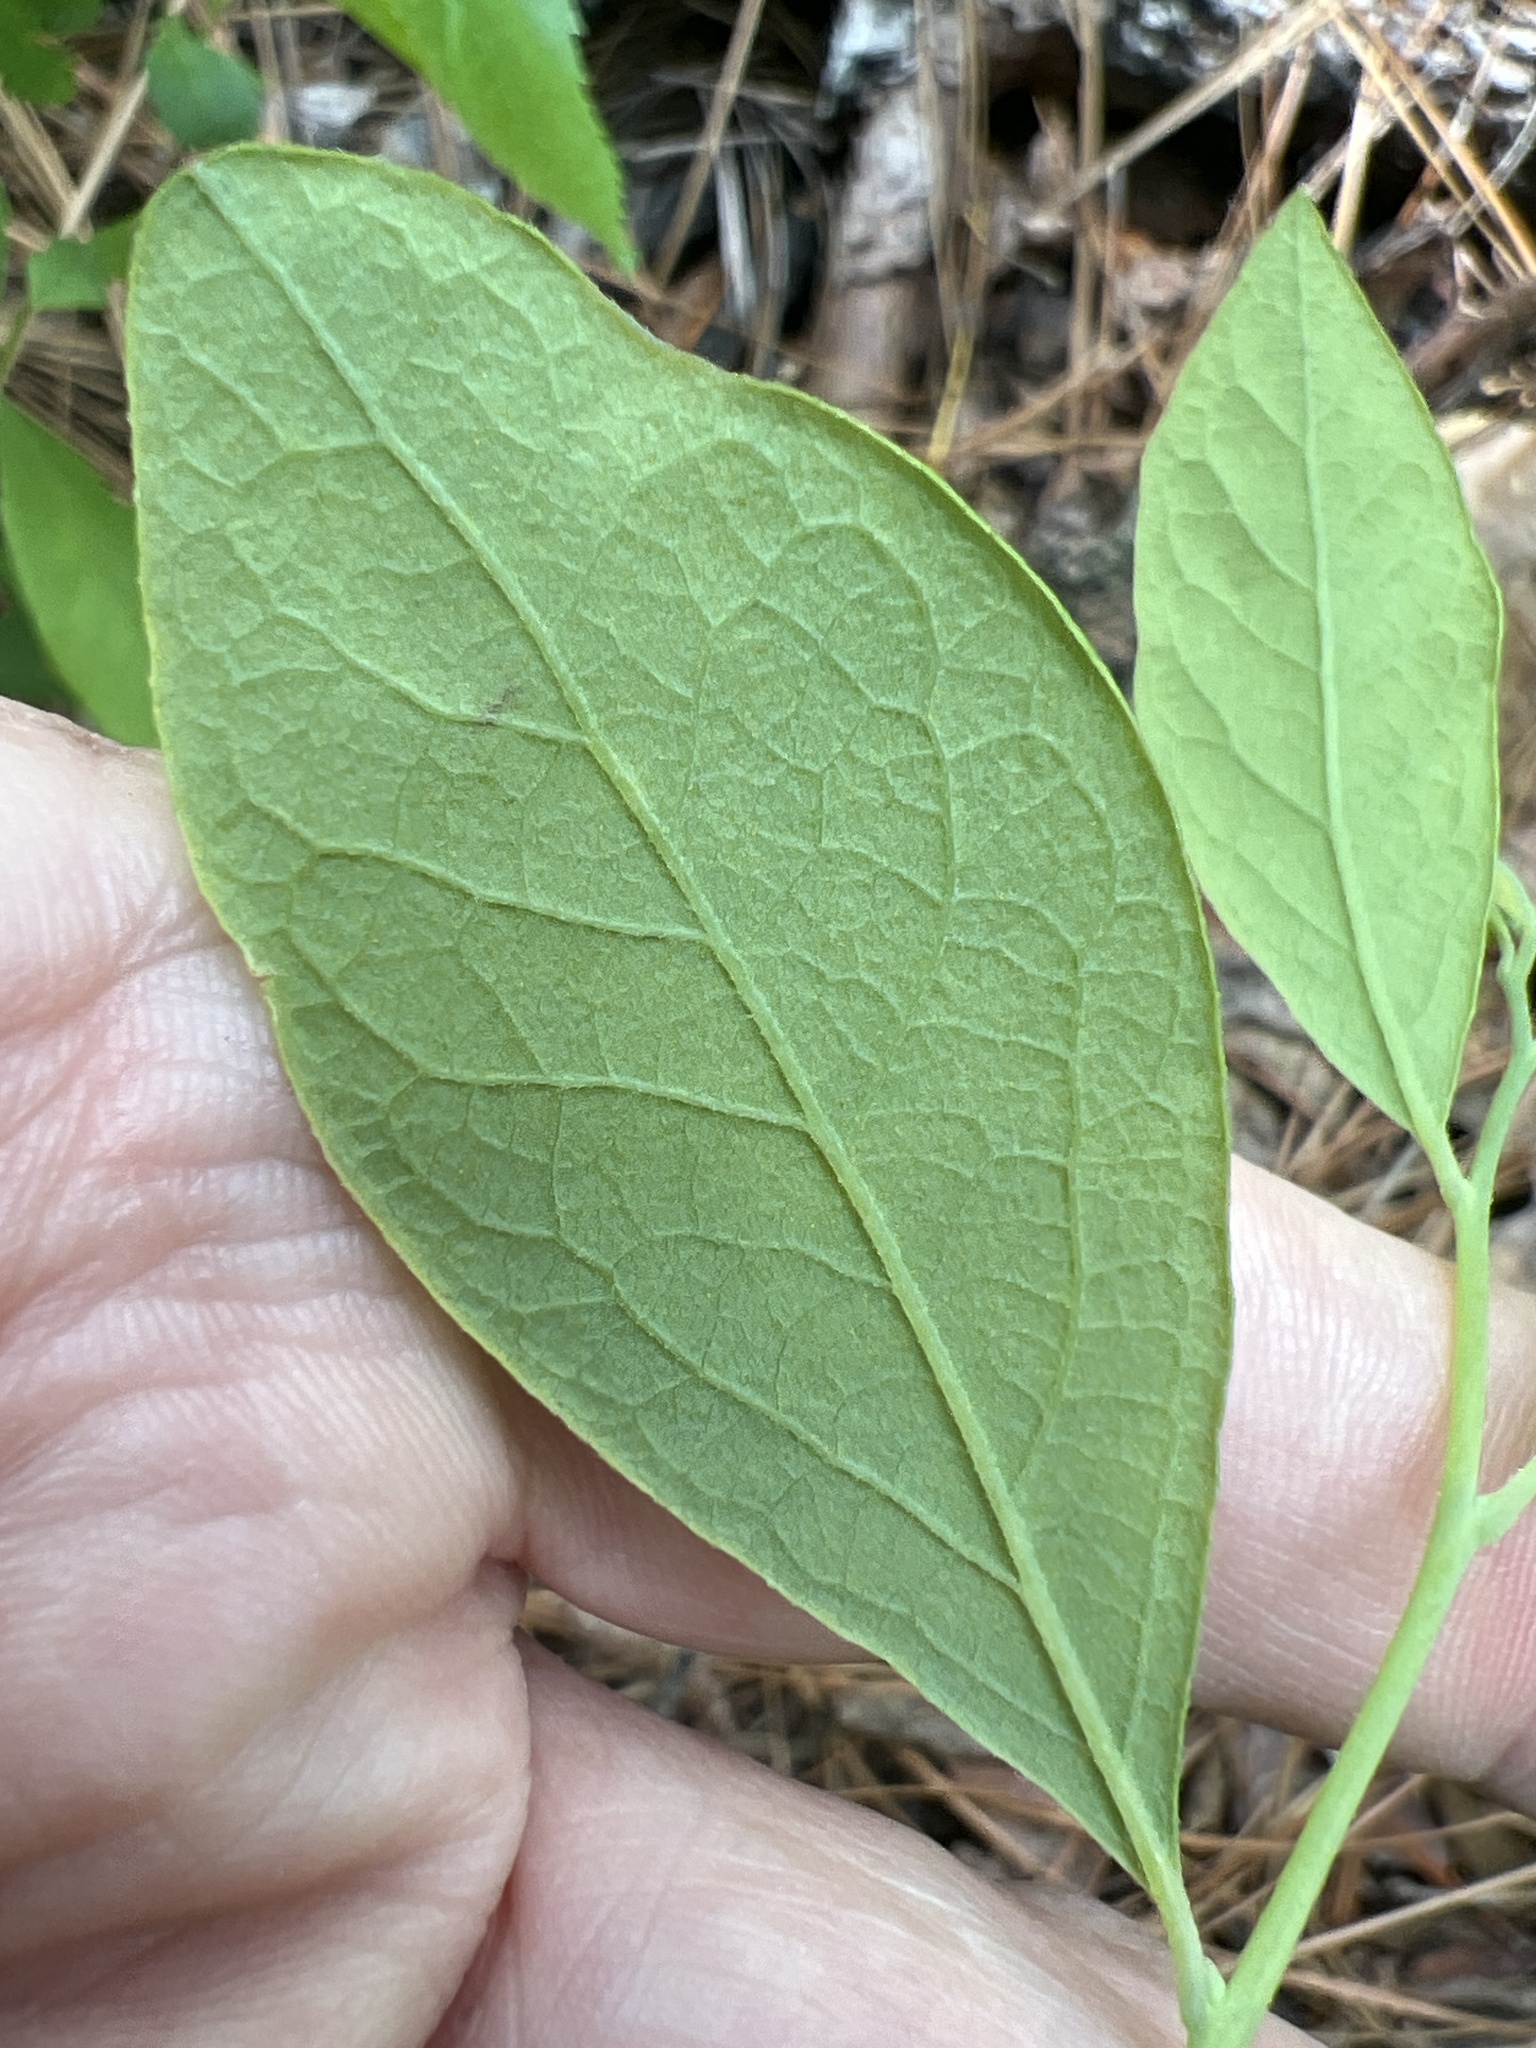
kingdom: Plantae
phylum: Tracheophyta
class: Magnoliopsida
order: Ericales
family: Ericaceae
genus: Gaylussacia
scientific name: Gaylussacia frondosa
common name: Dangleberry
